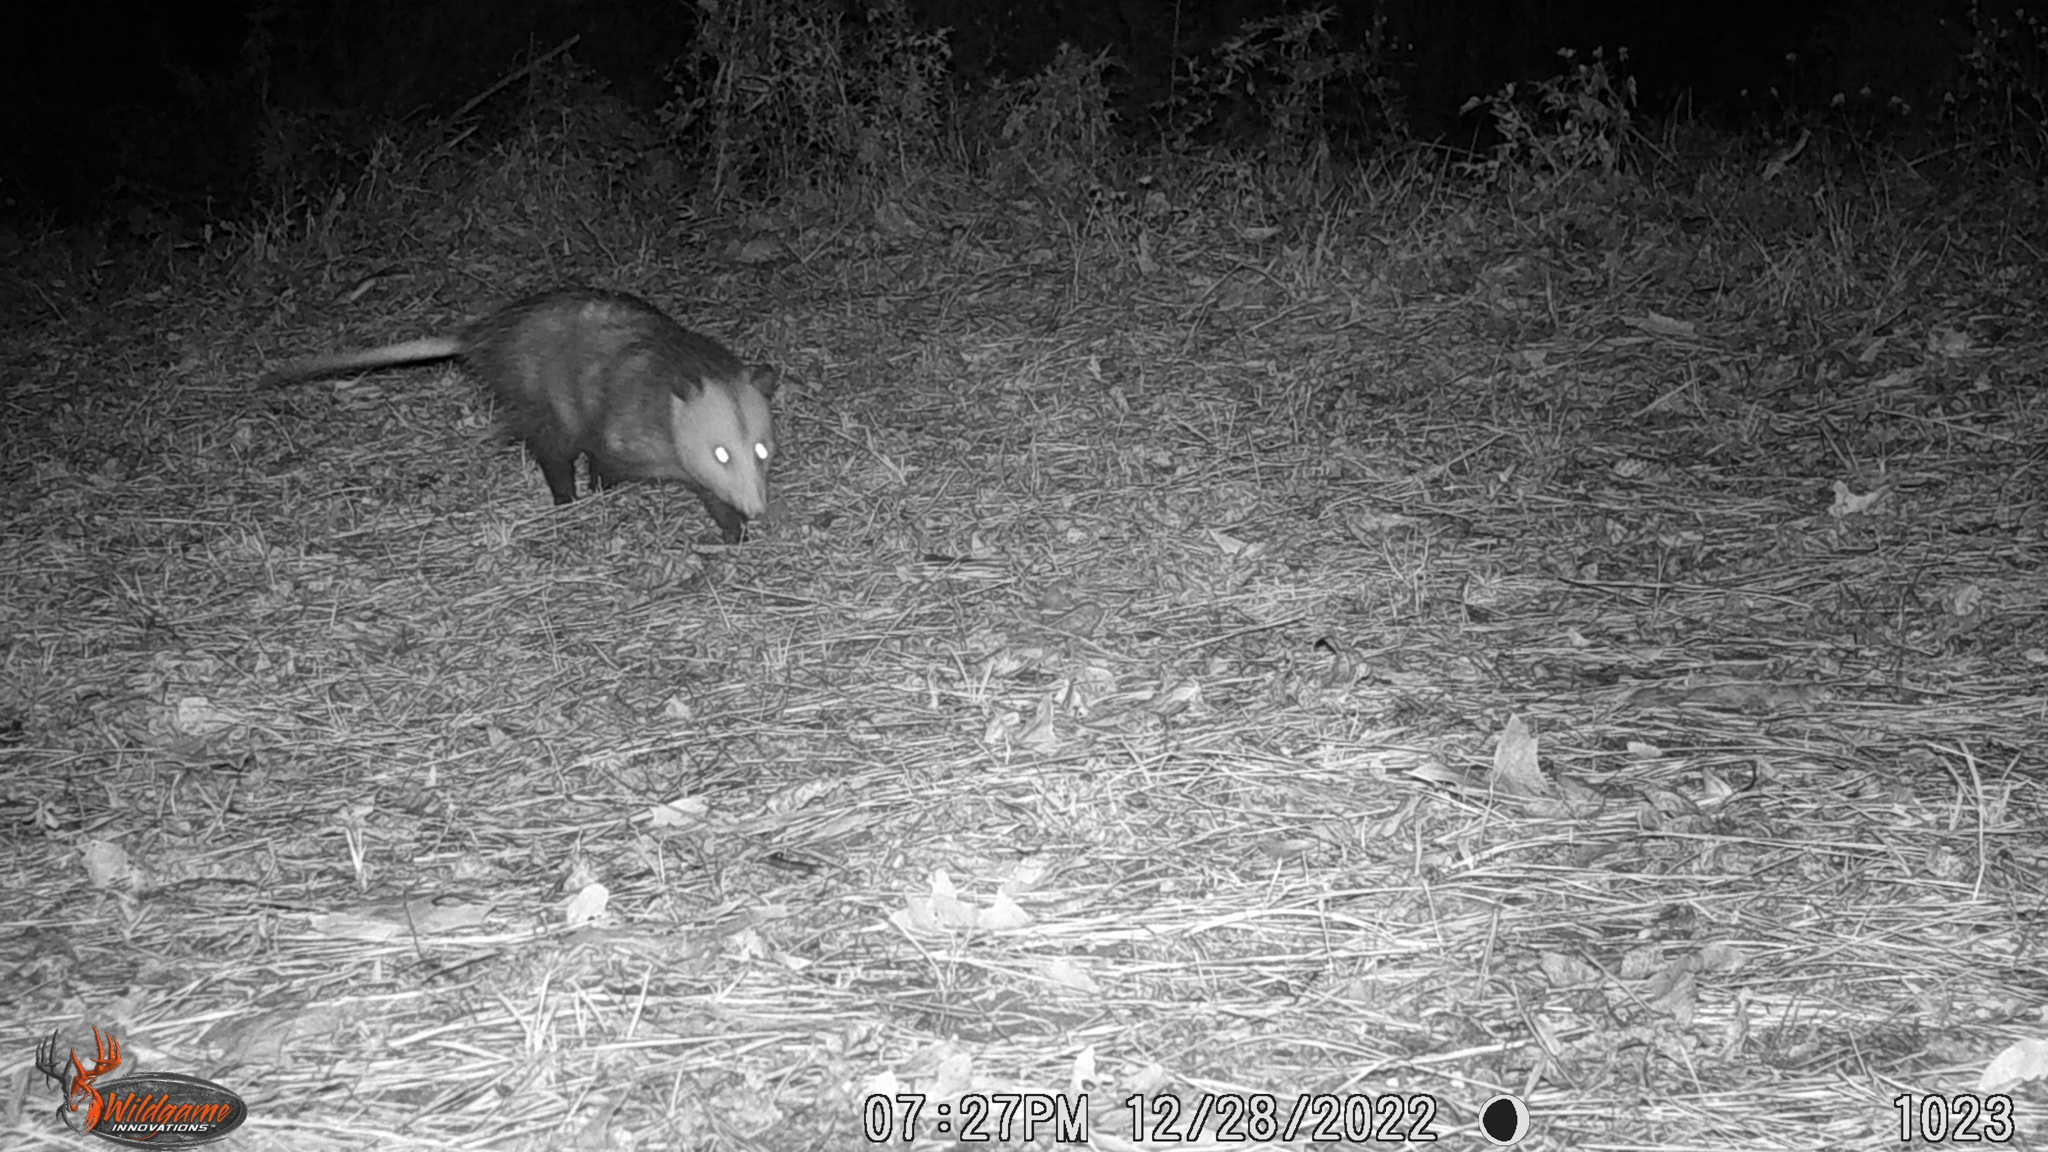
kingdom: Animalia
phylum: Chordata
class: Mammalia
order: Didelphimorphia
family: Didelphidae
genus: Didelphis
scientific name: Didelphis virginiana
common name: Virginia opossum
